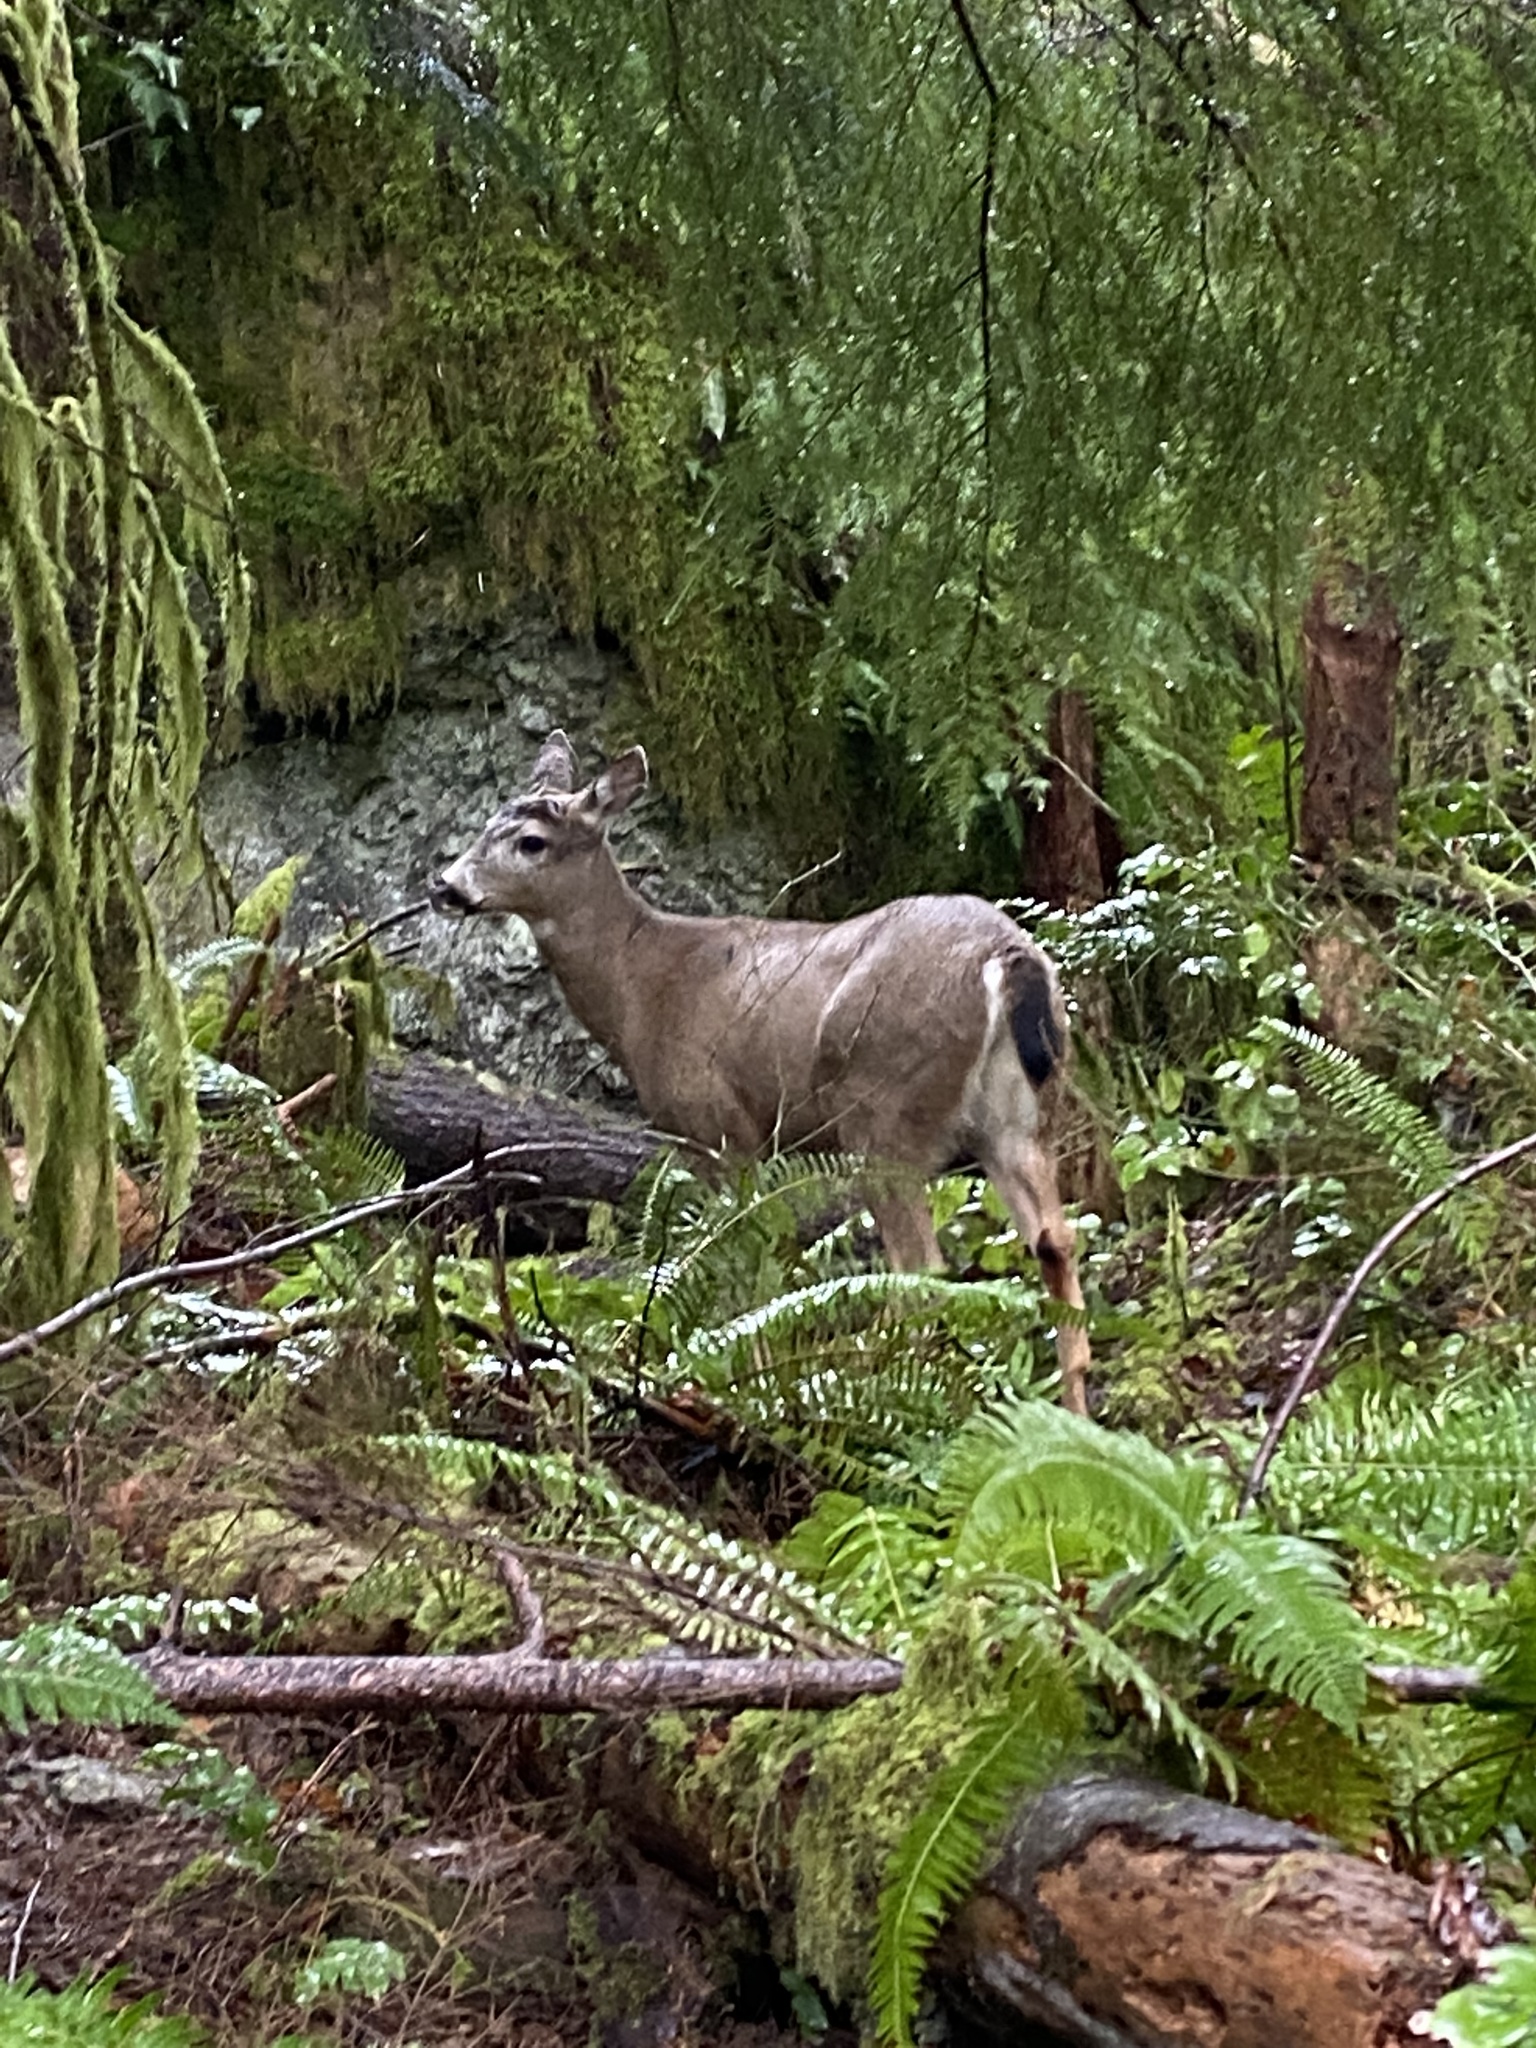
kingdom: Animalia
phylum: Chordata
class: Mammalia
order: Artiodactyla
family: Cervidae
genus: Odocoileus
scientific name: Odocoileus hemionus
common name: Mule deer
